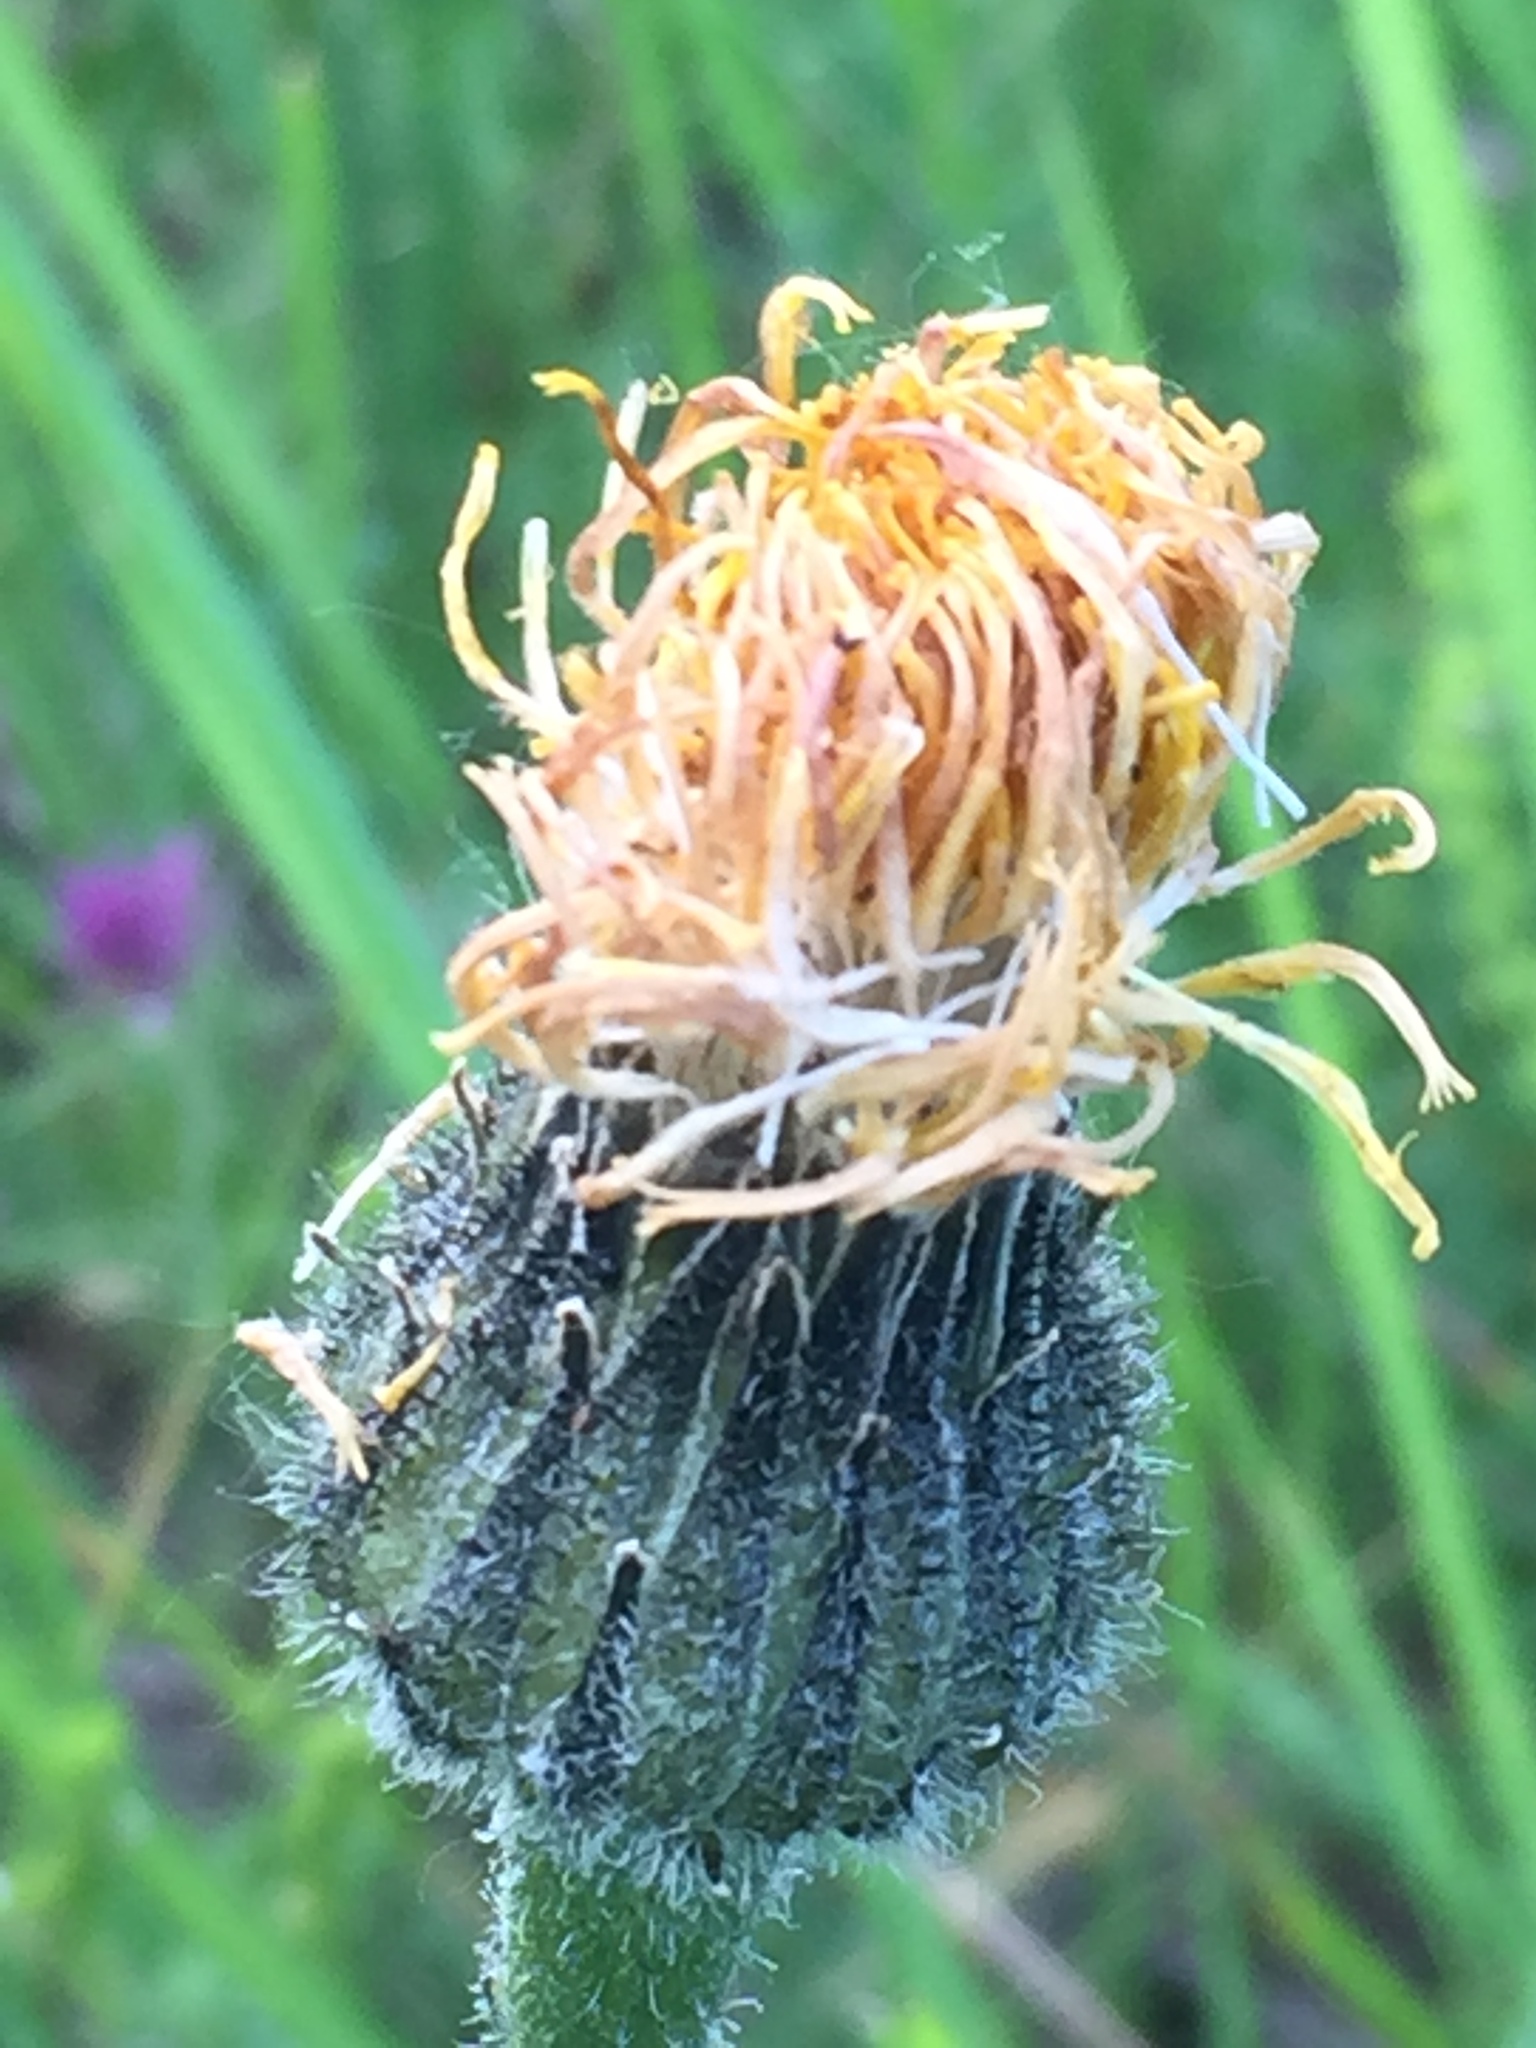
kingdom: Plantae
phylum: Tracheophyta
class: Magnoliopsida
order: Asterales
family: Asteraceae
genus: Trommsdorffia
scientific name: Trommsdorffia maculata
